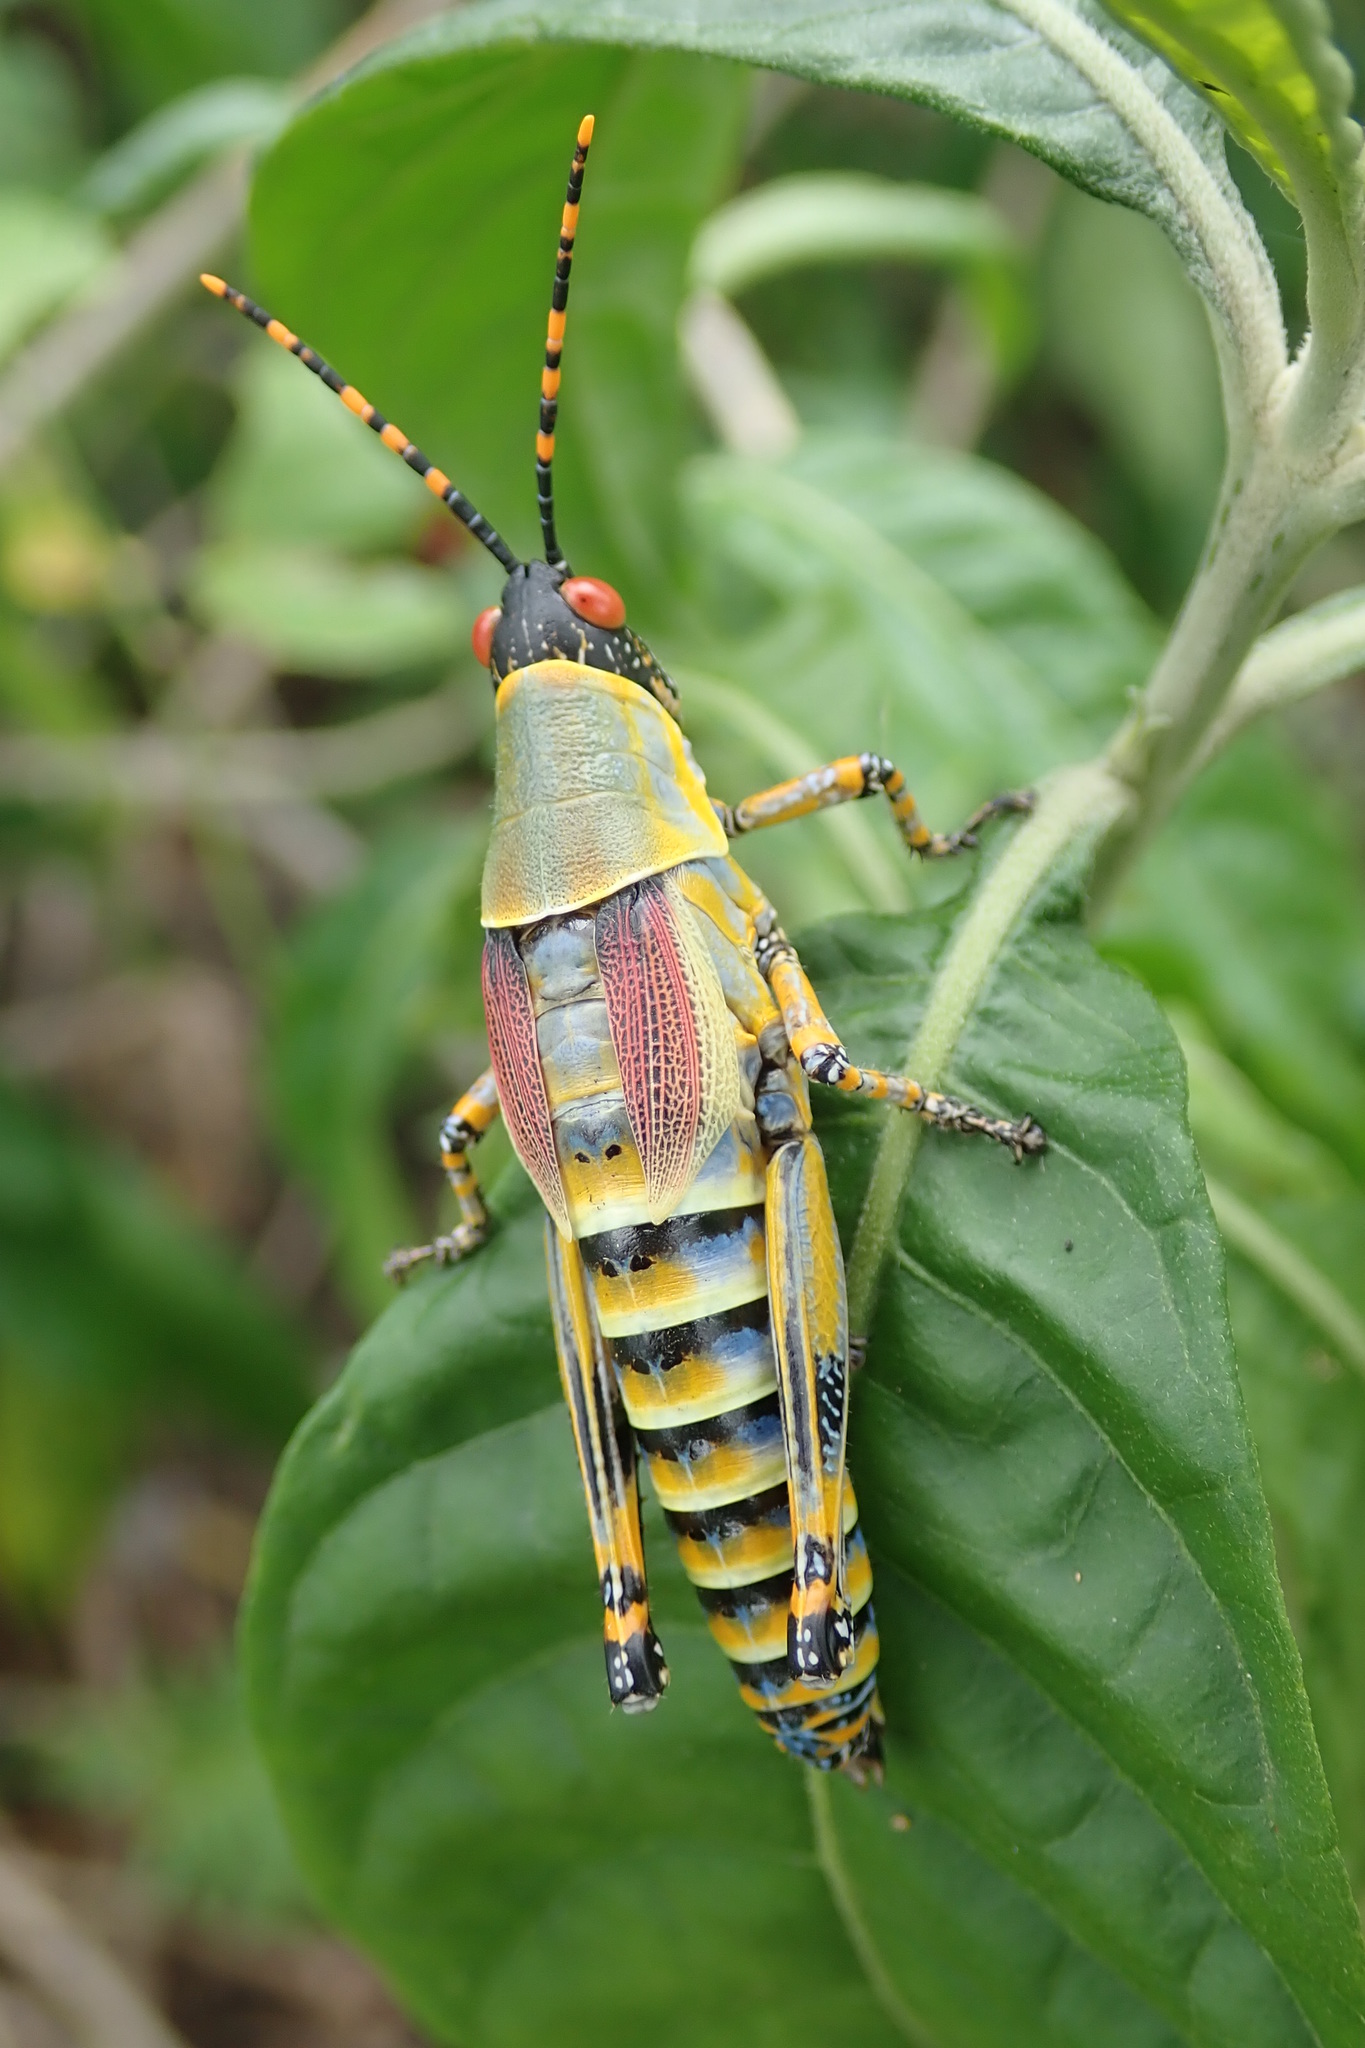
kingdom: Animalia
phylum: Arthropoda
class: Insecta
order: Orthoptera
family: Pyrgomorphidae
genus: Zonocerus
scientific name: Zonocerus elegans
